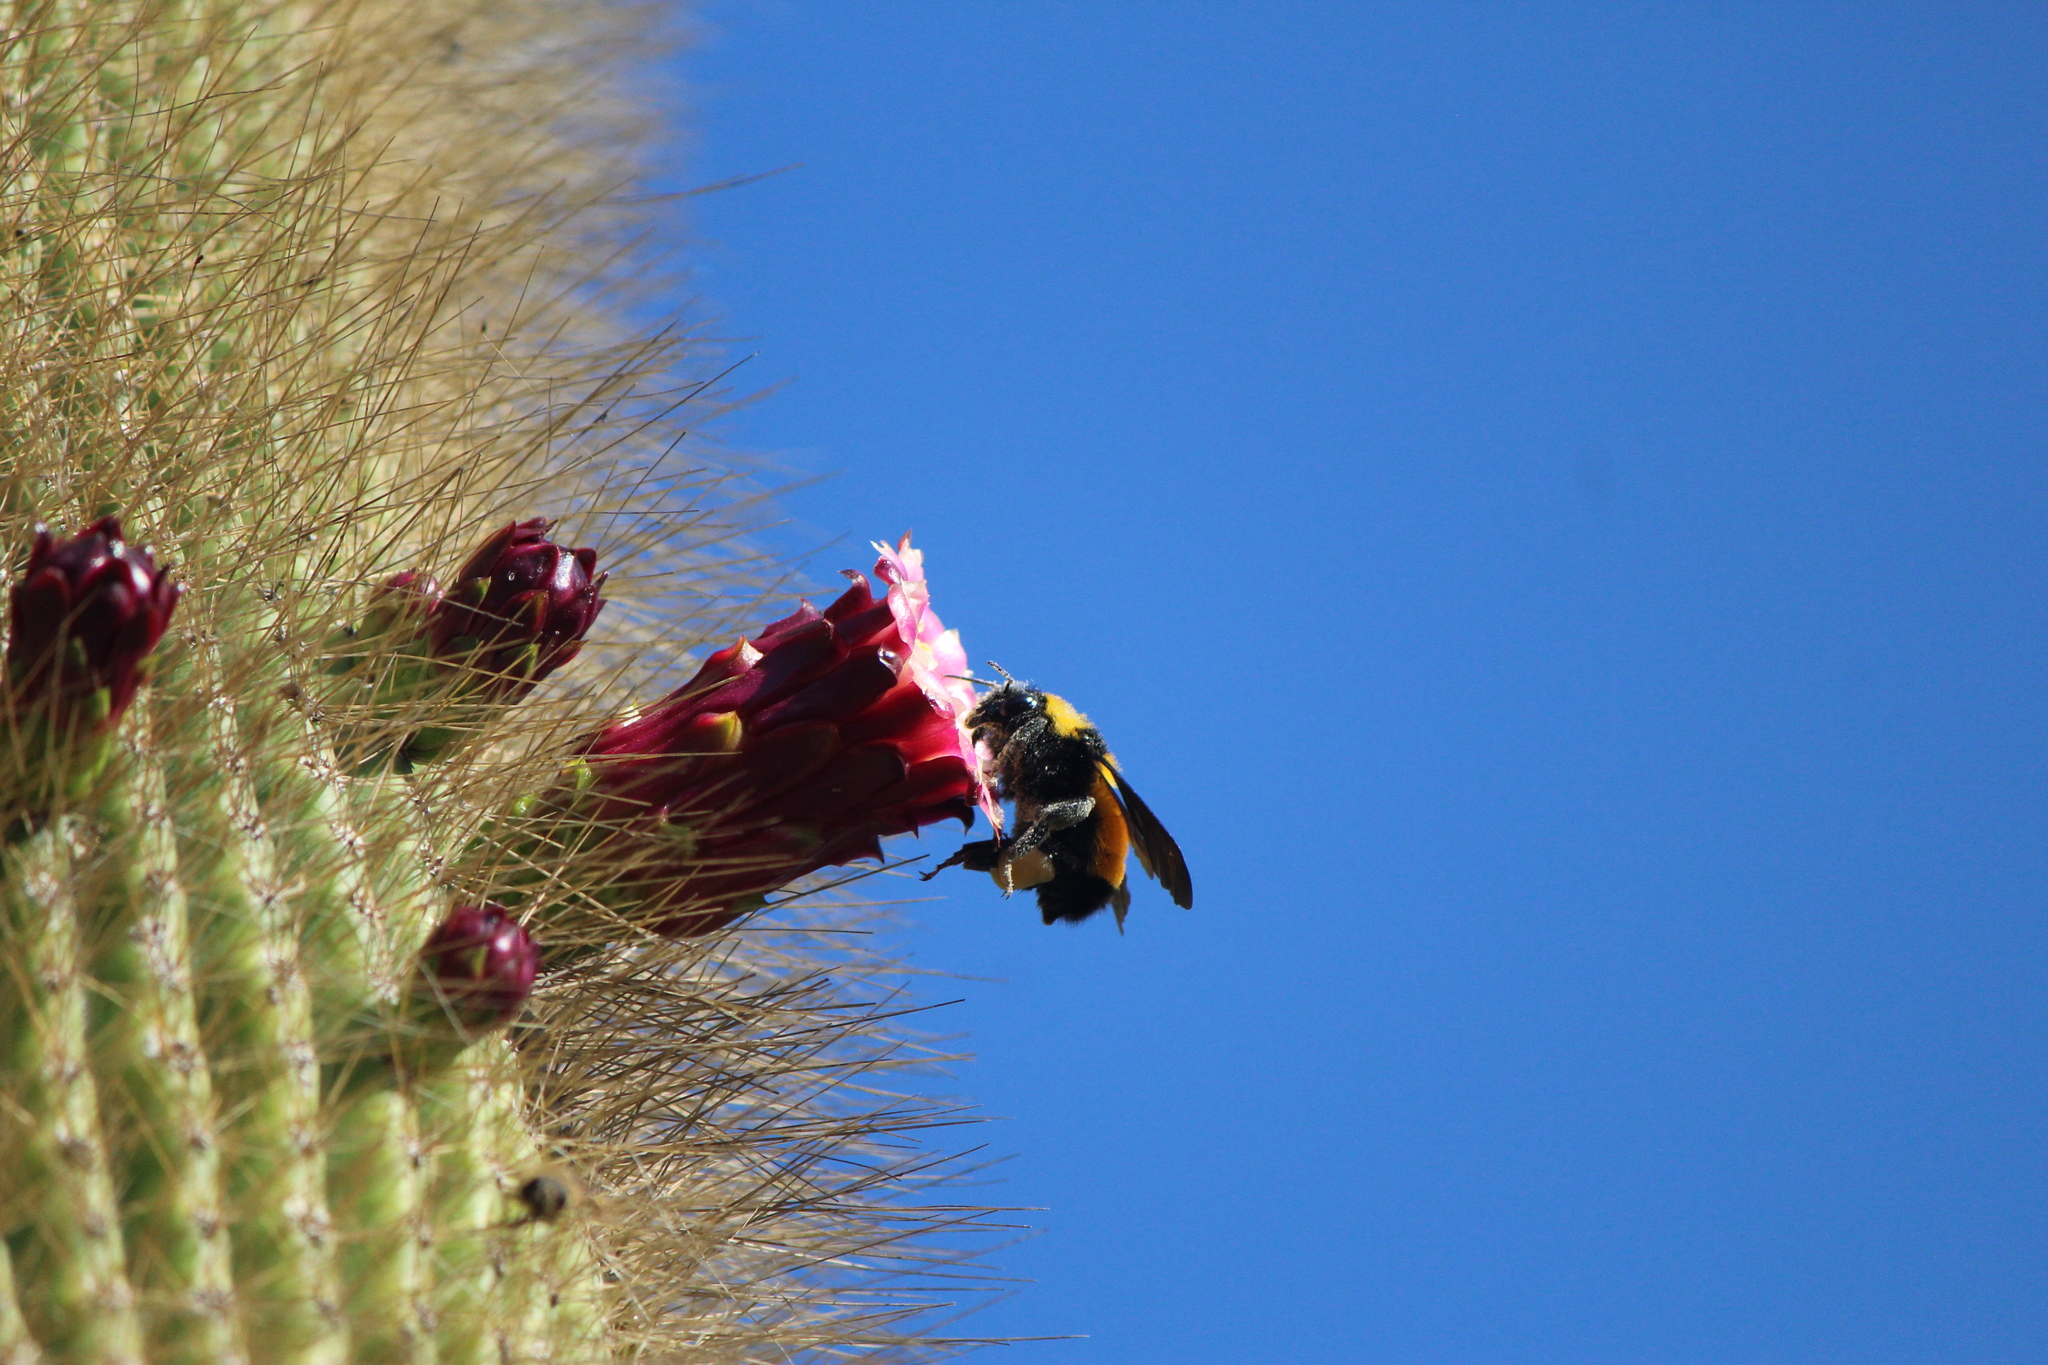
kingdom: Animalia
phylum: Arthropoda
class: Insecta
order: Hymenoptera
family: Apidae
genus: Bombus
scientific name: Bombus sonorus
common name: Sonoran bumble bee
